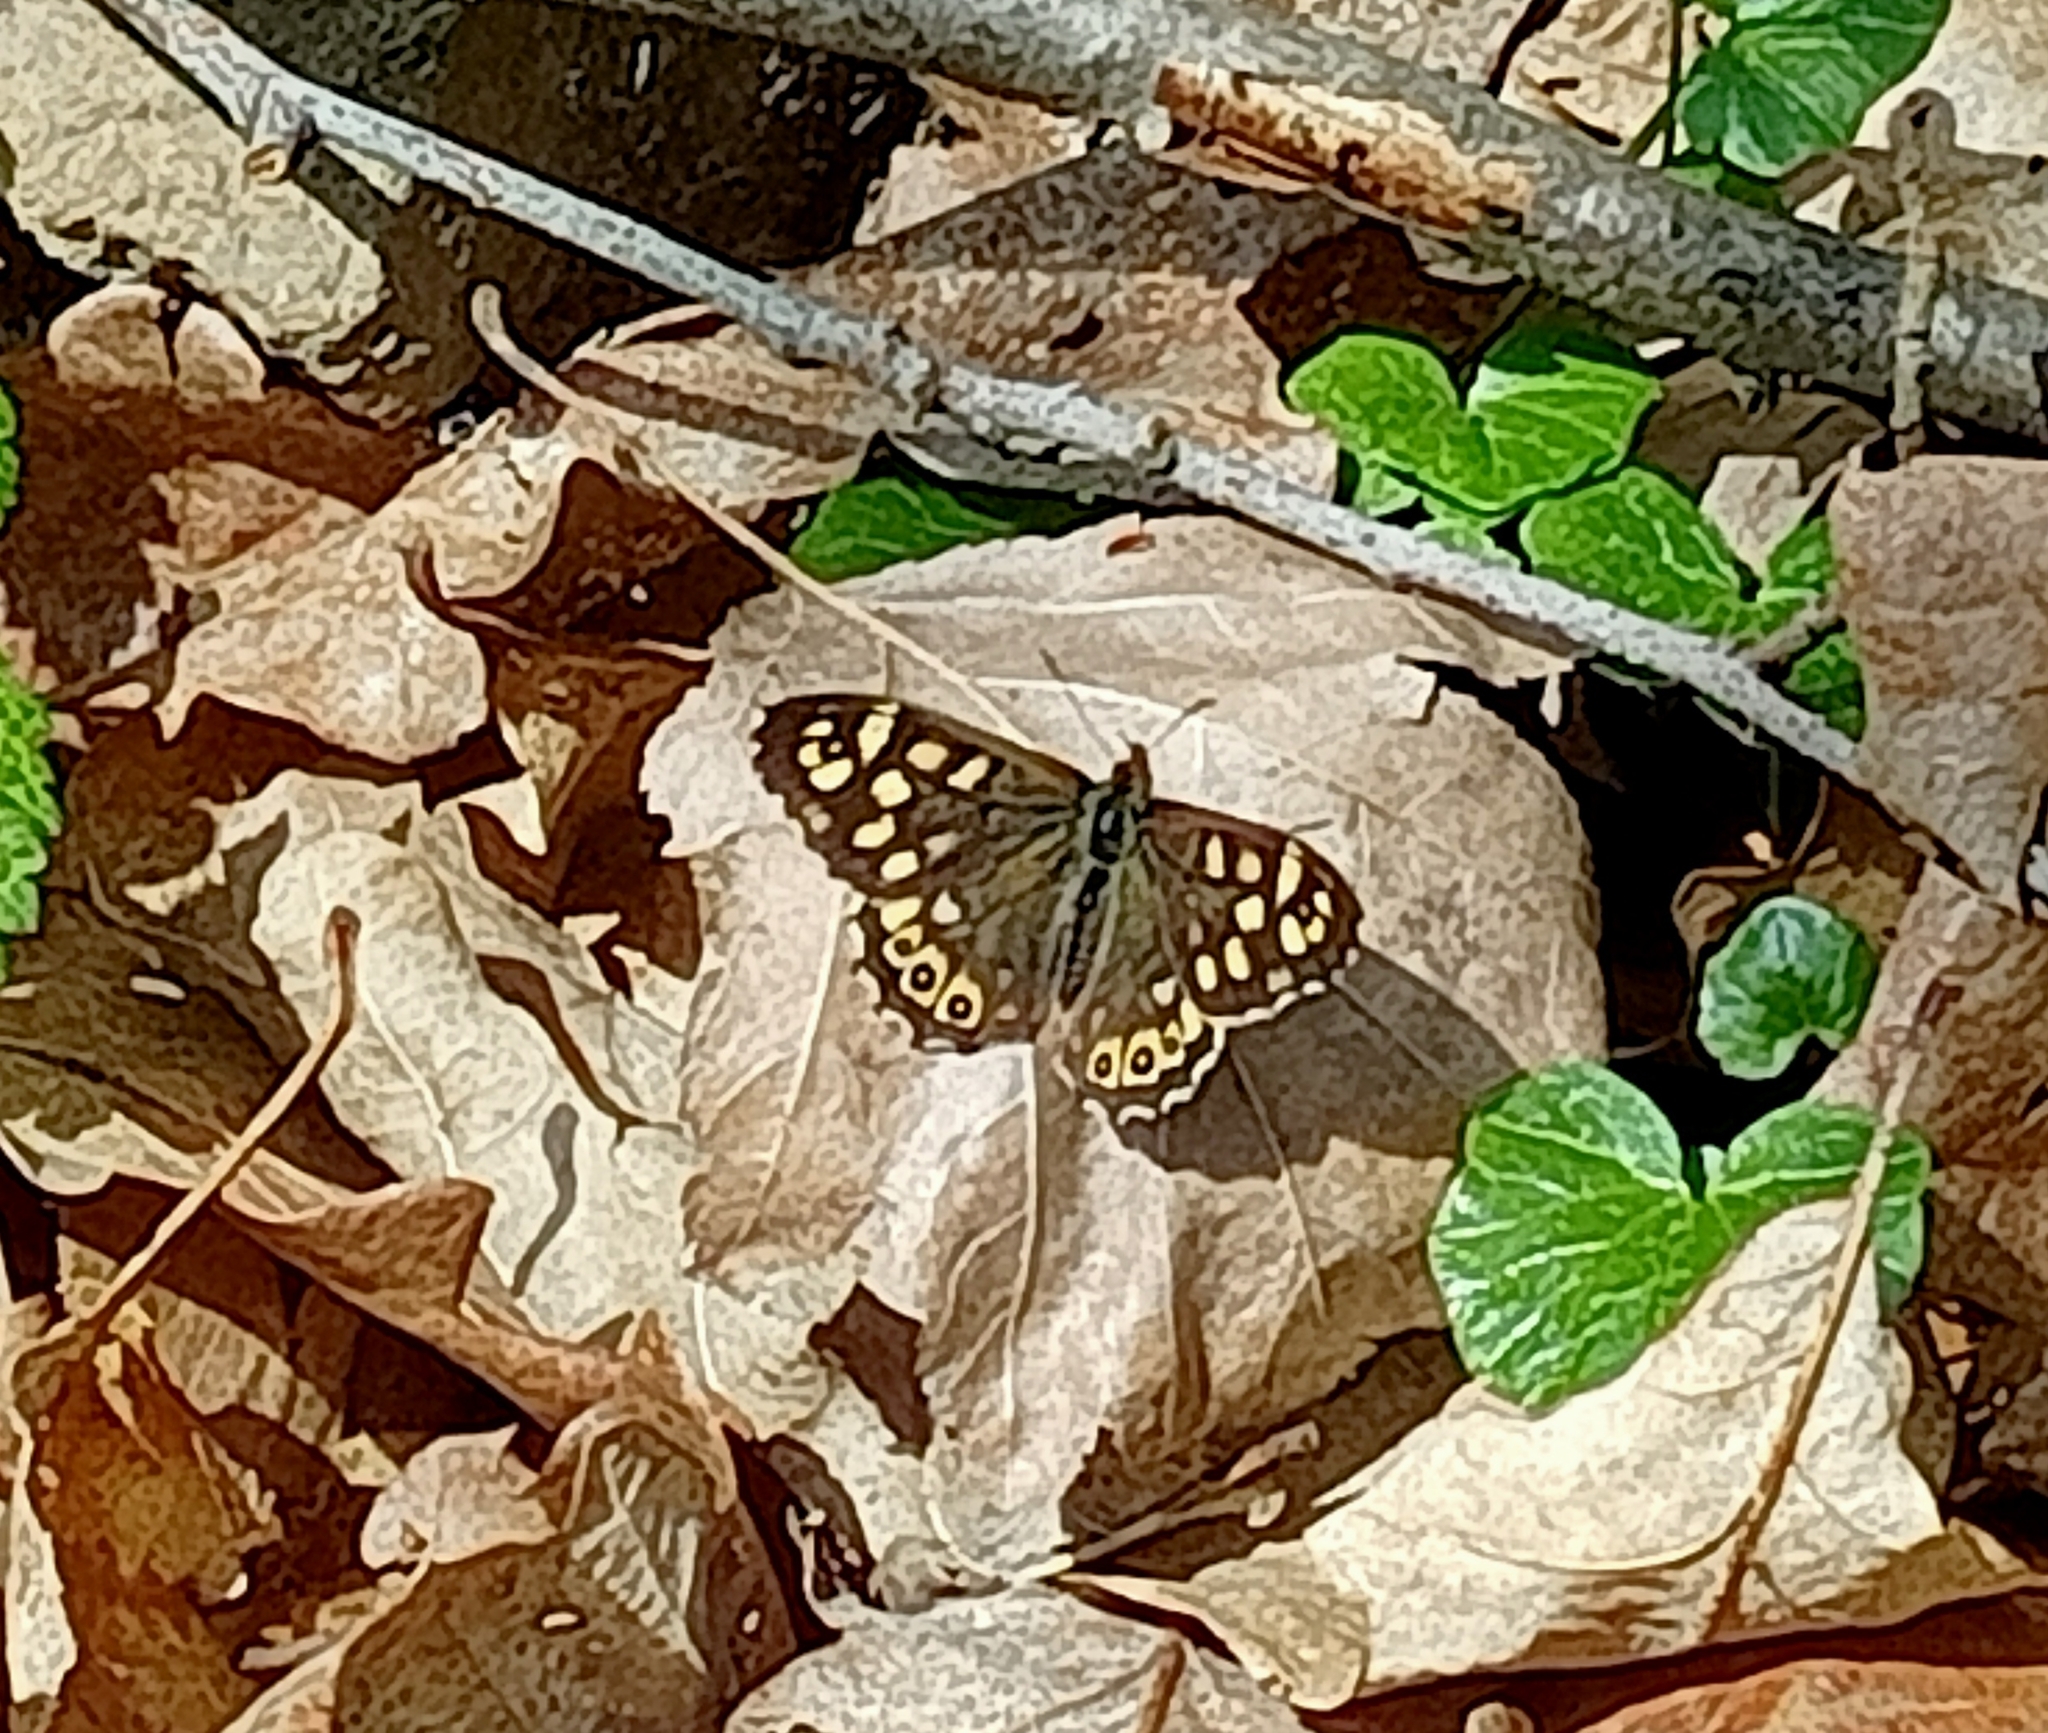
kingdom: Animalia
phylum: Arthropoda
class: Insecta
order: Lepidoptera
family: Nymphalidae
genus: Pararge
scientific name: Pararge aegeria
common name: Speckled wood
